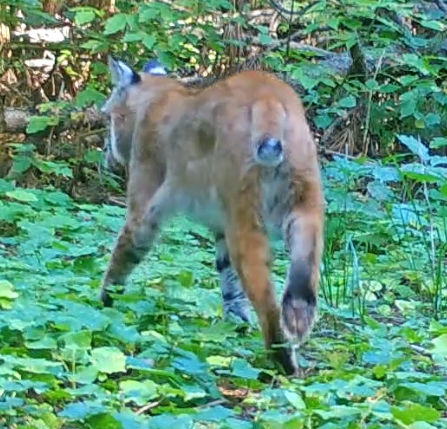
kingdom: Animalia
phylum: Chordata
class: Mammalia
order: Carnivora
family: Felidae
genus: Lynx
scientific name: Lynx rufus
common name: Bobcat
